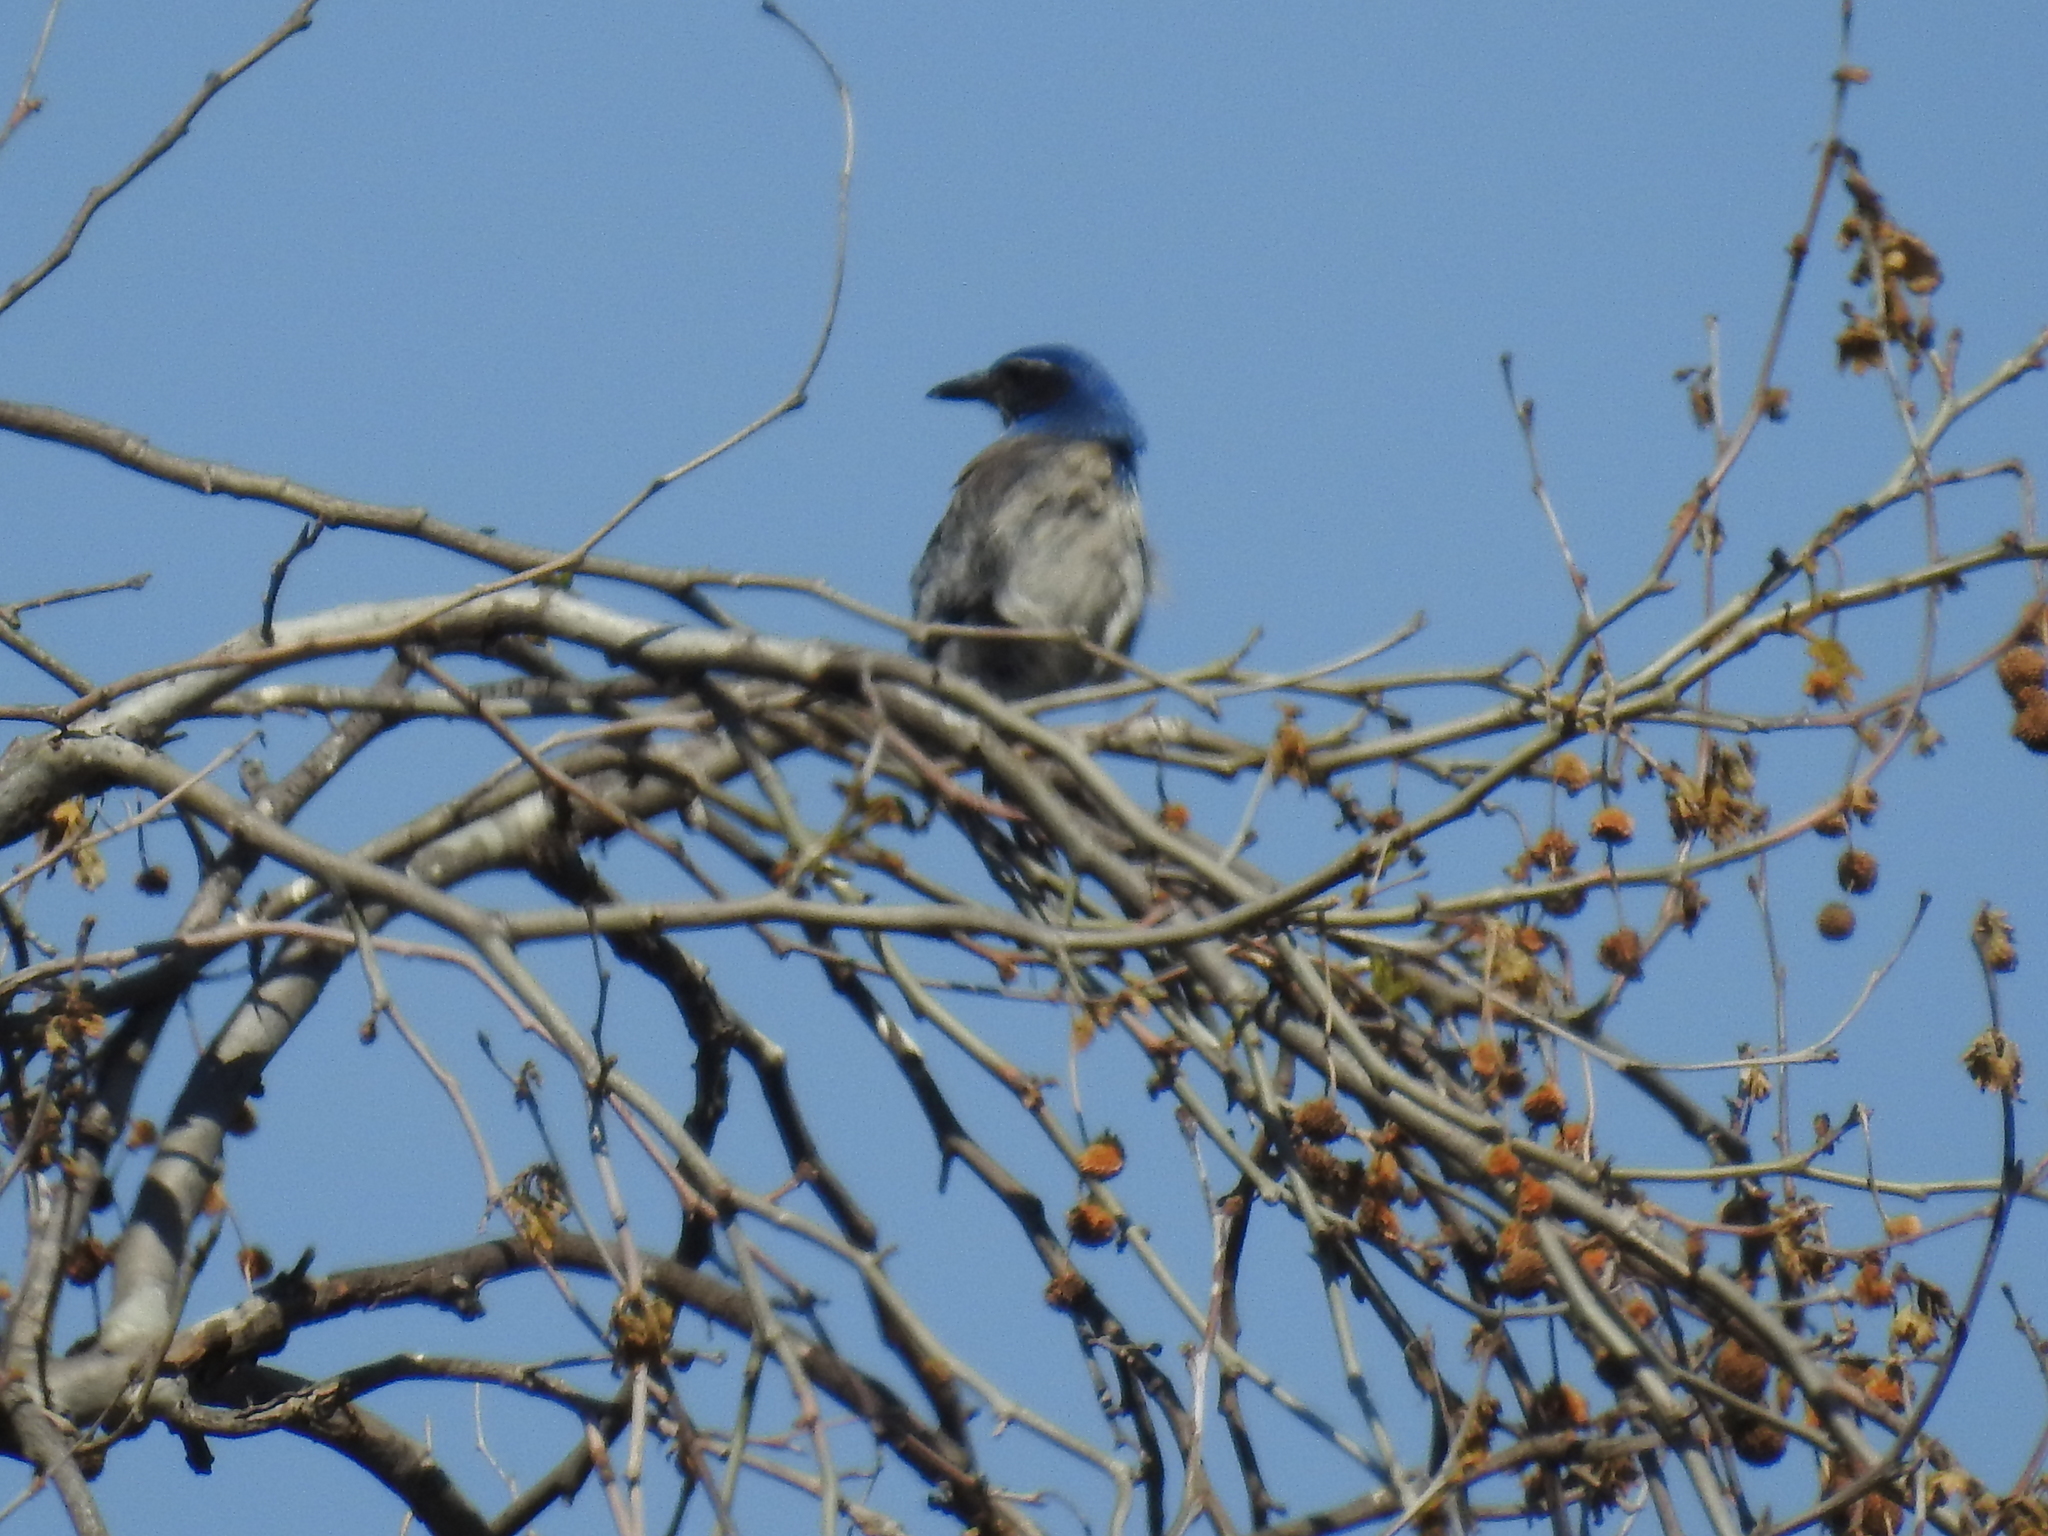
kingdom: Animalia
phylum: Chordata
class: Aves
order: Passeriformes
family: Corvidae
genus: Aphelocoma
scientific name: Aphelocoma californica
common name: California scrub-jay
